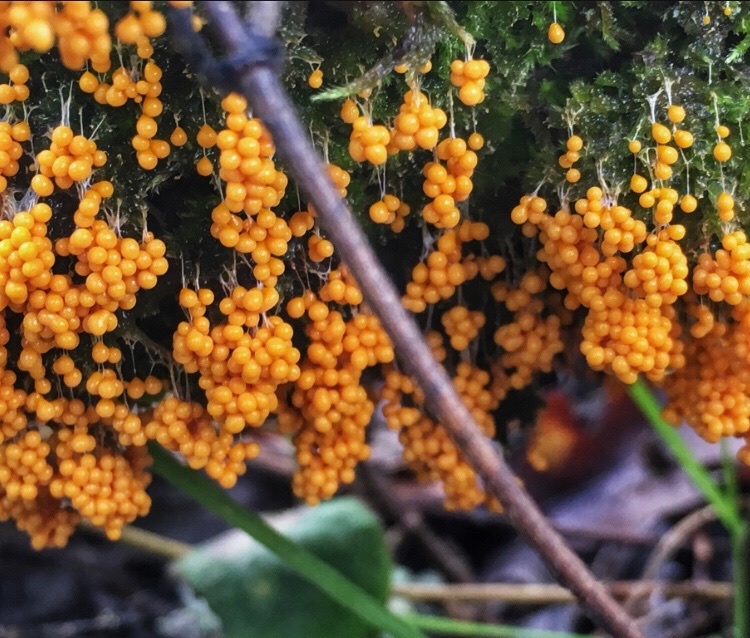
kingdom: Protozoa
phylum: Mycetozoa
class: Myxomycetes
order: Physarales
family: Physaraceae
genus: Badhamia
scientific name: Badhamia utricularis
